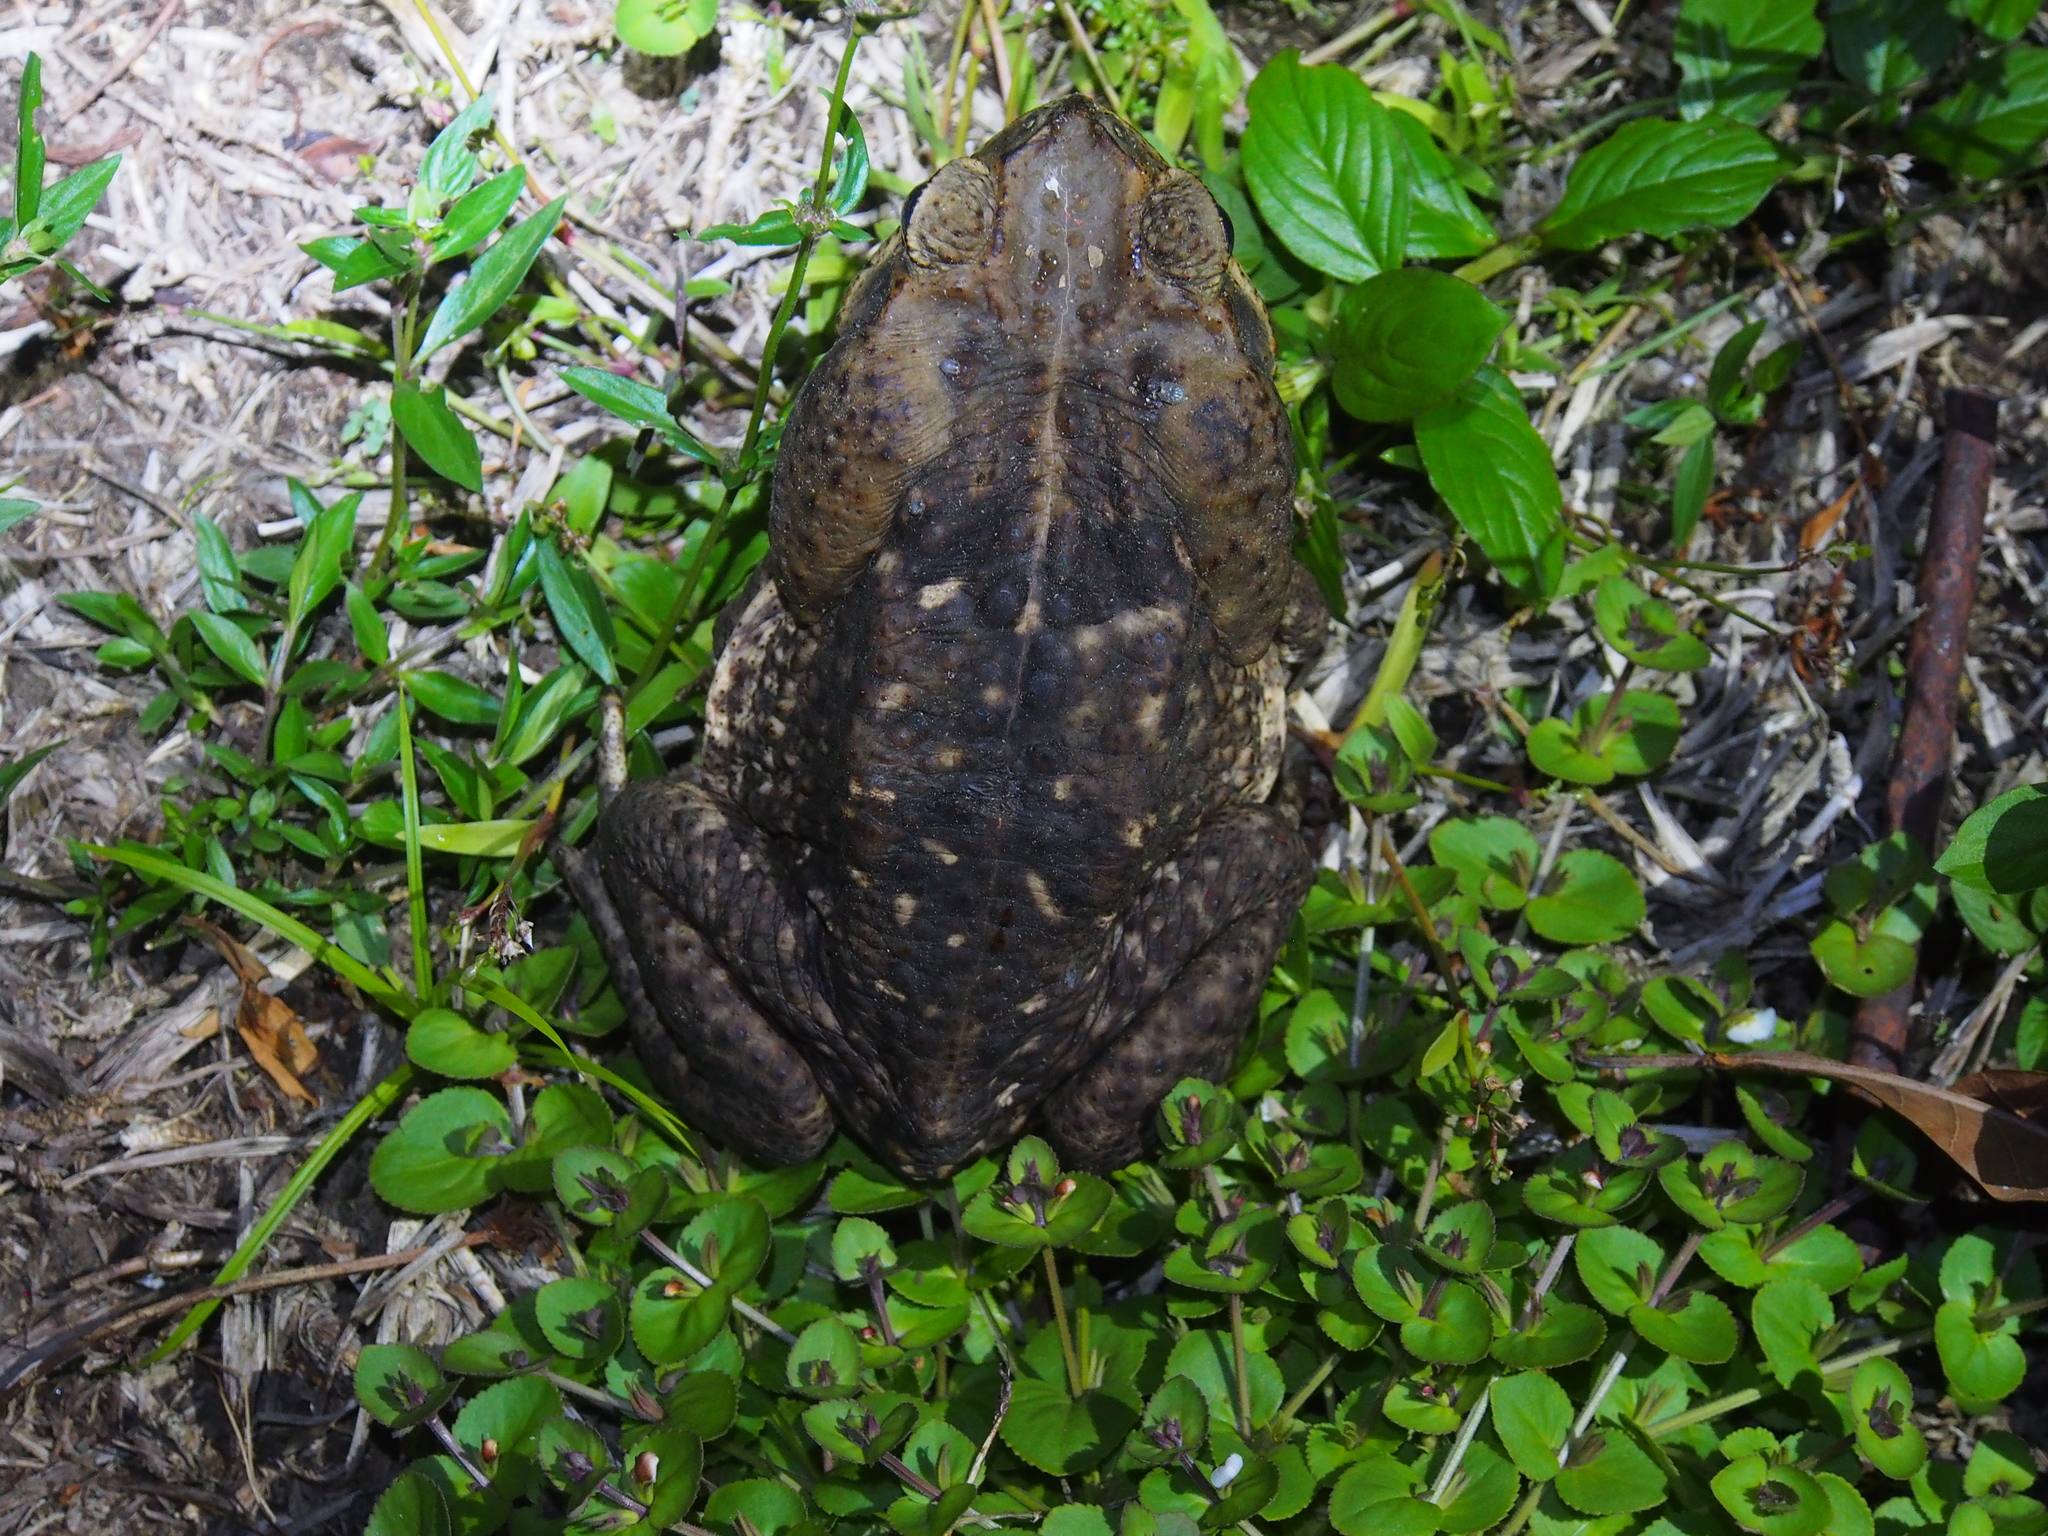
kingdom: Animalia
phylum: Chordata
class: Amphibia
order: Anura
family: Bufonidae
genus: Rhinella
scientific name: Rhinella horribilis
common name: Mesoamerican cane toad
